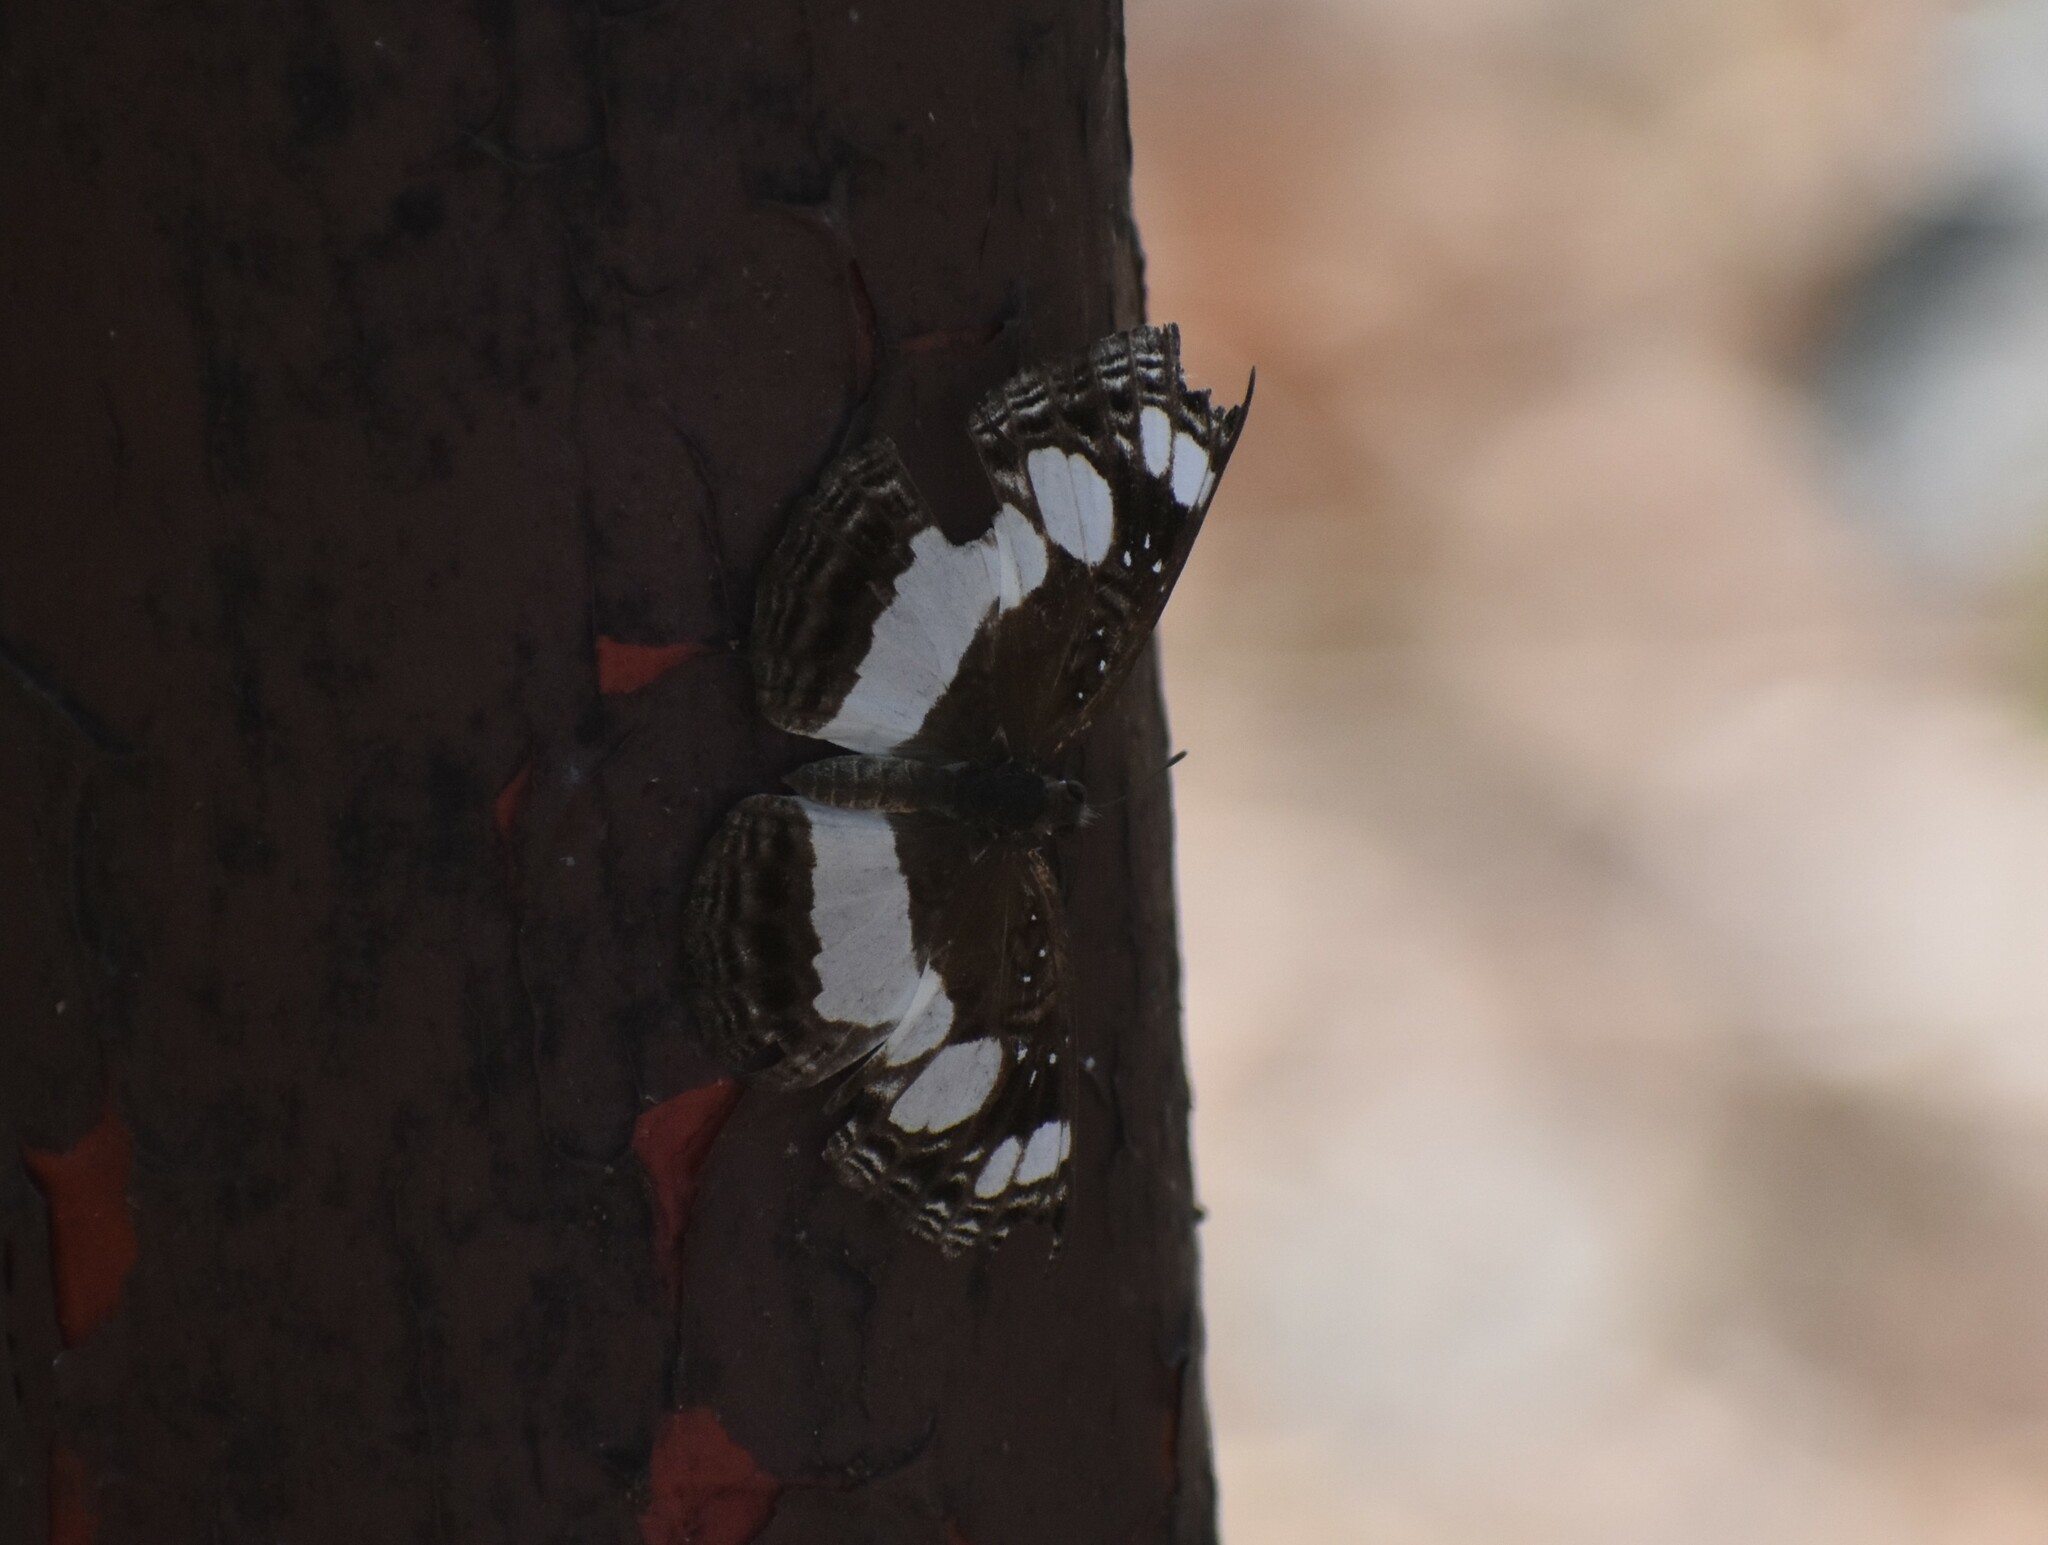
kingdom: Animalia
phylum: Arthropoda
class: Insecta
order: Lepidoptera
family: Nymphalidae
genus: Neptis
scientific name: Neptis saclava
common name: Small spotted sailor
